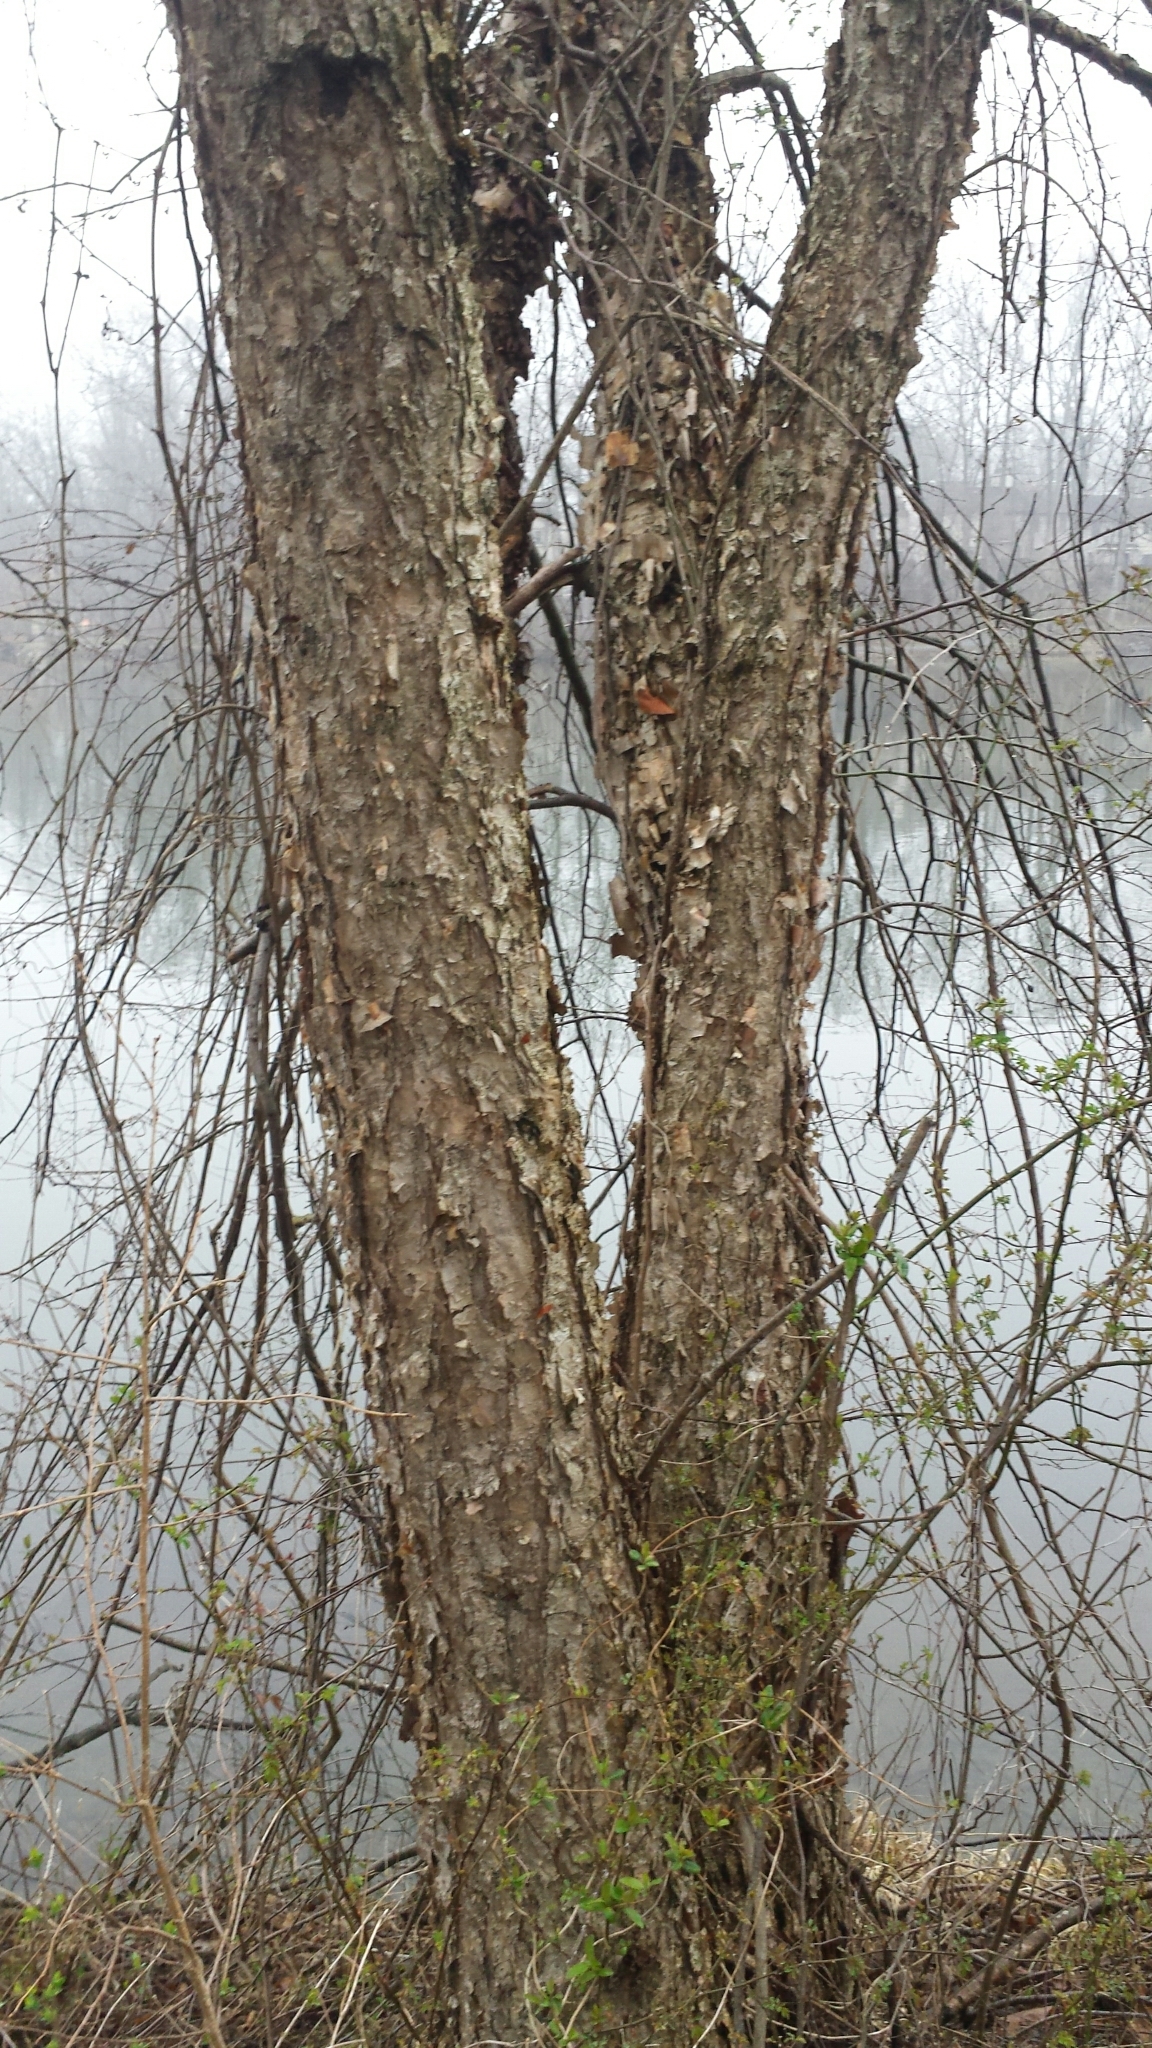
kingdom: Plantae
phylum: Tracheophyta
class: Magnoliopsida
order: Fagales
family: Betulaceae
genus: Betula
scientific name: Betula nigra
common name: Black birch
